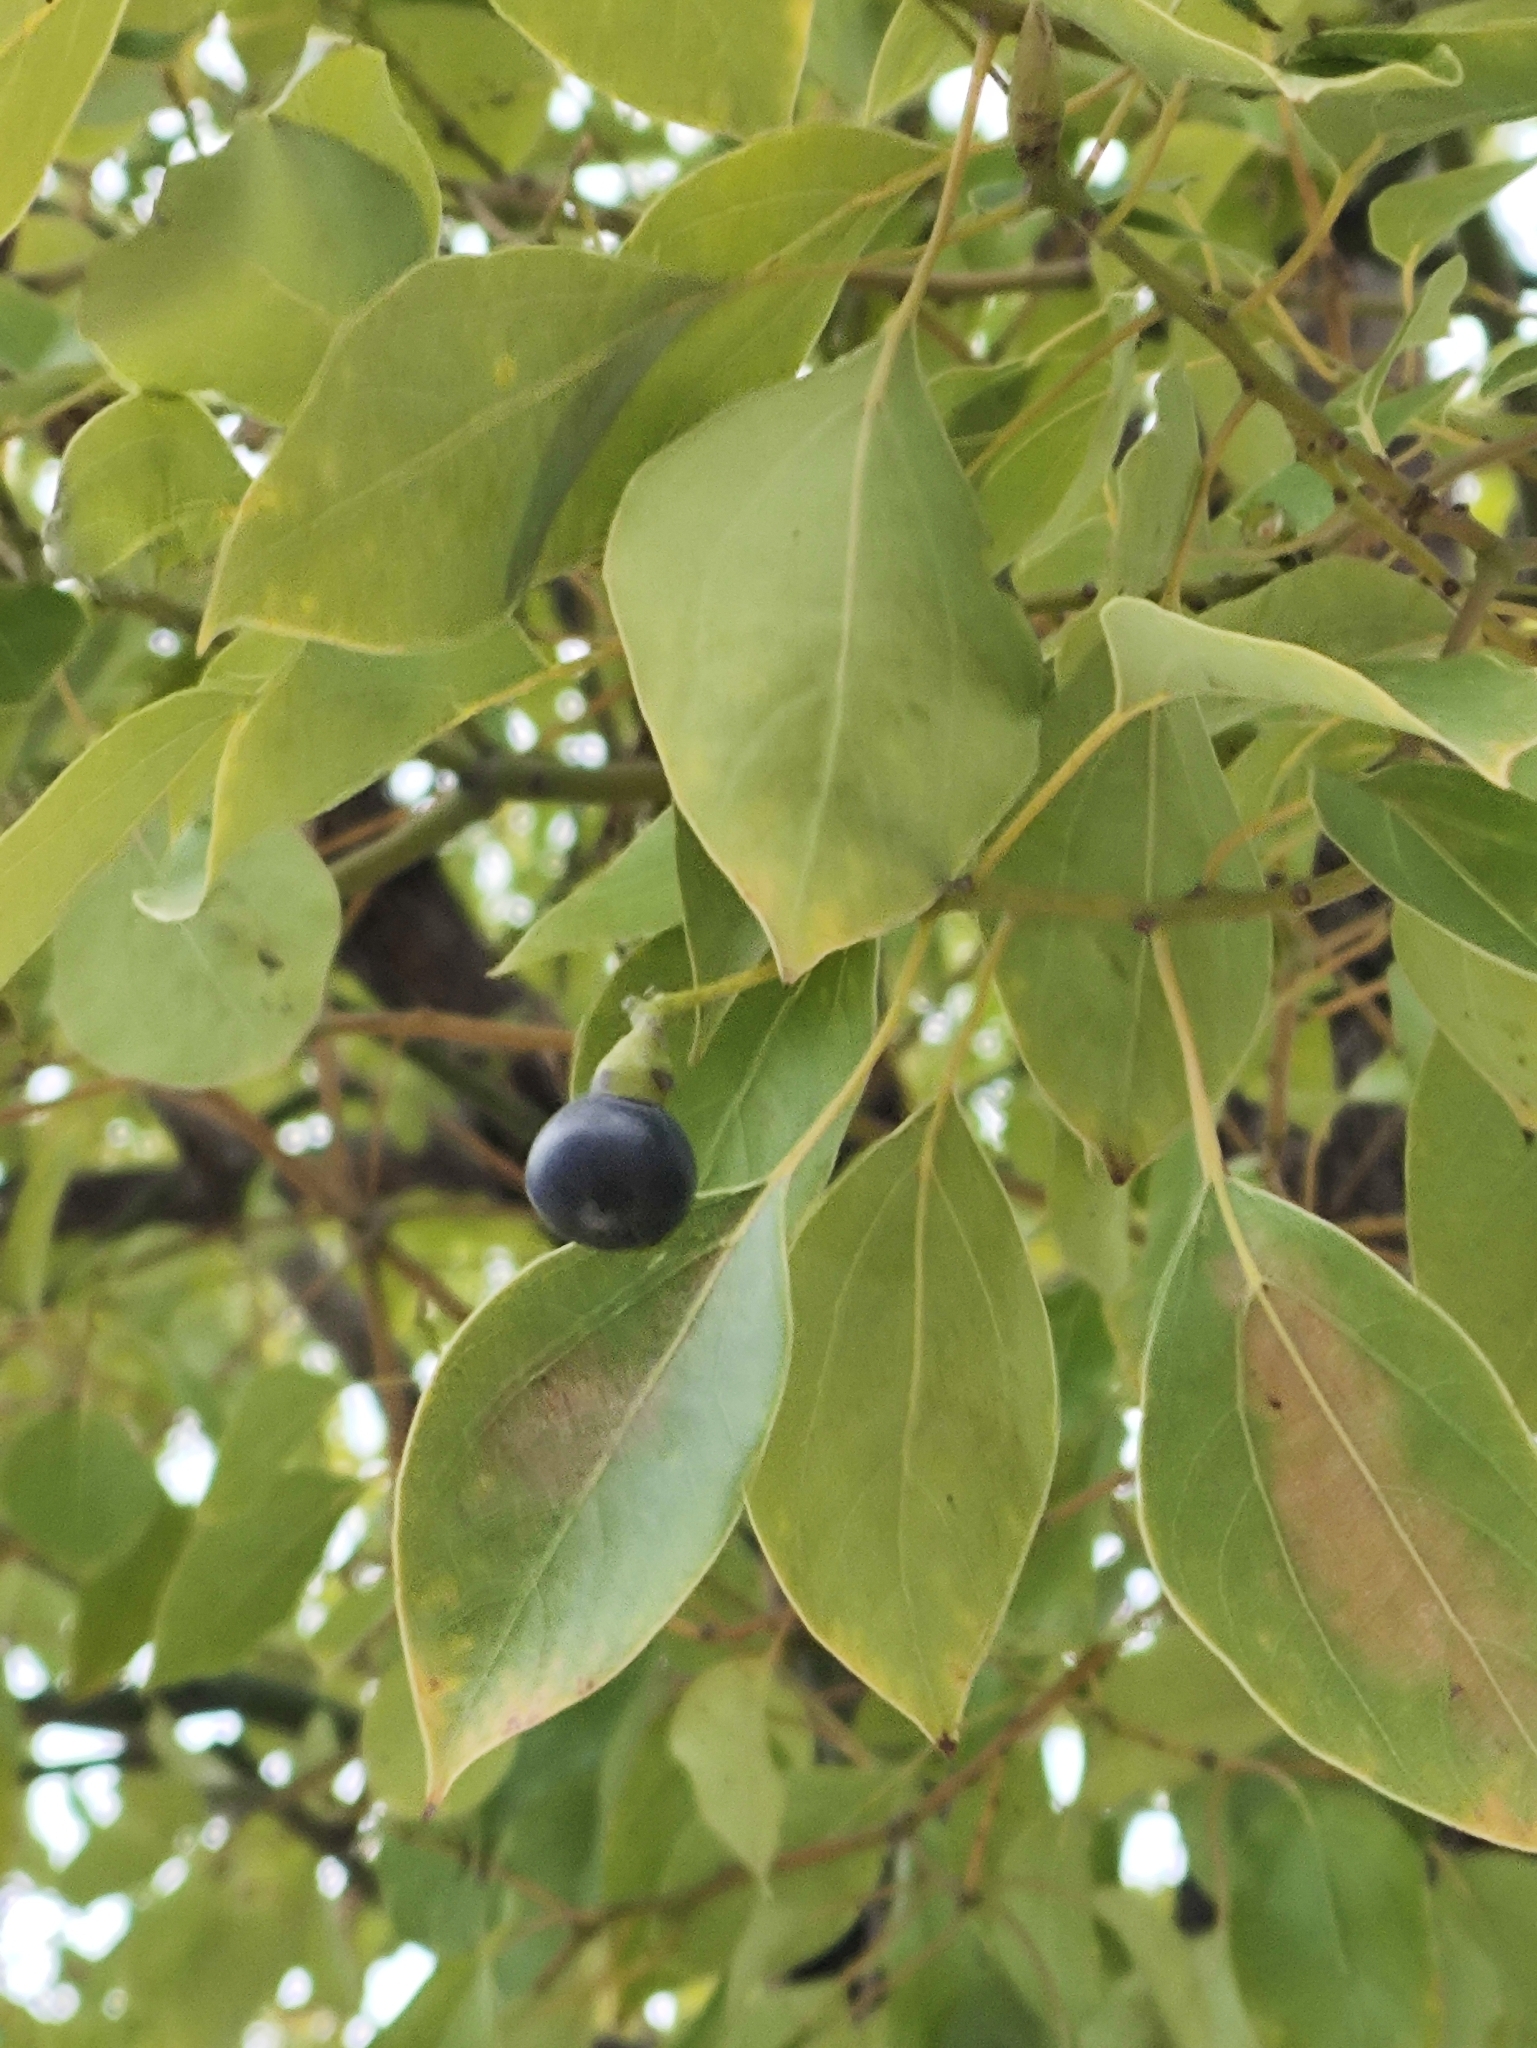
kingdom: Plantae
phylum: Tracheophyta
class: Magnoliopsida
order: Laurales
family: Lauraceae
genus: Cinnamomum
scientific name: Cinnamomum camphora
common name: Camphortree
